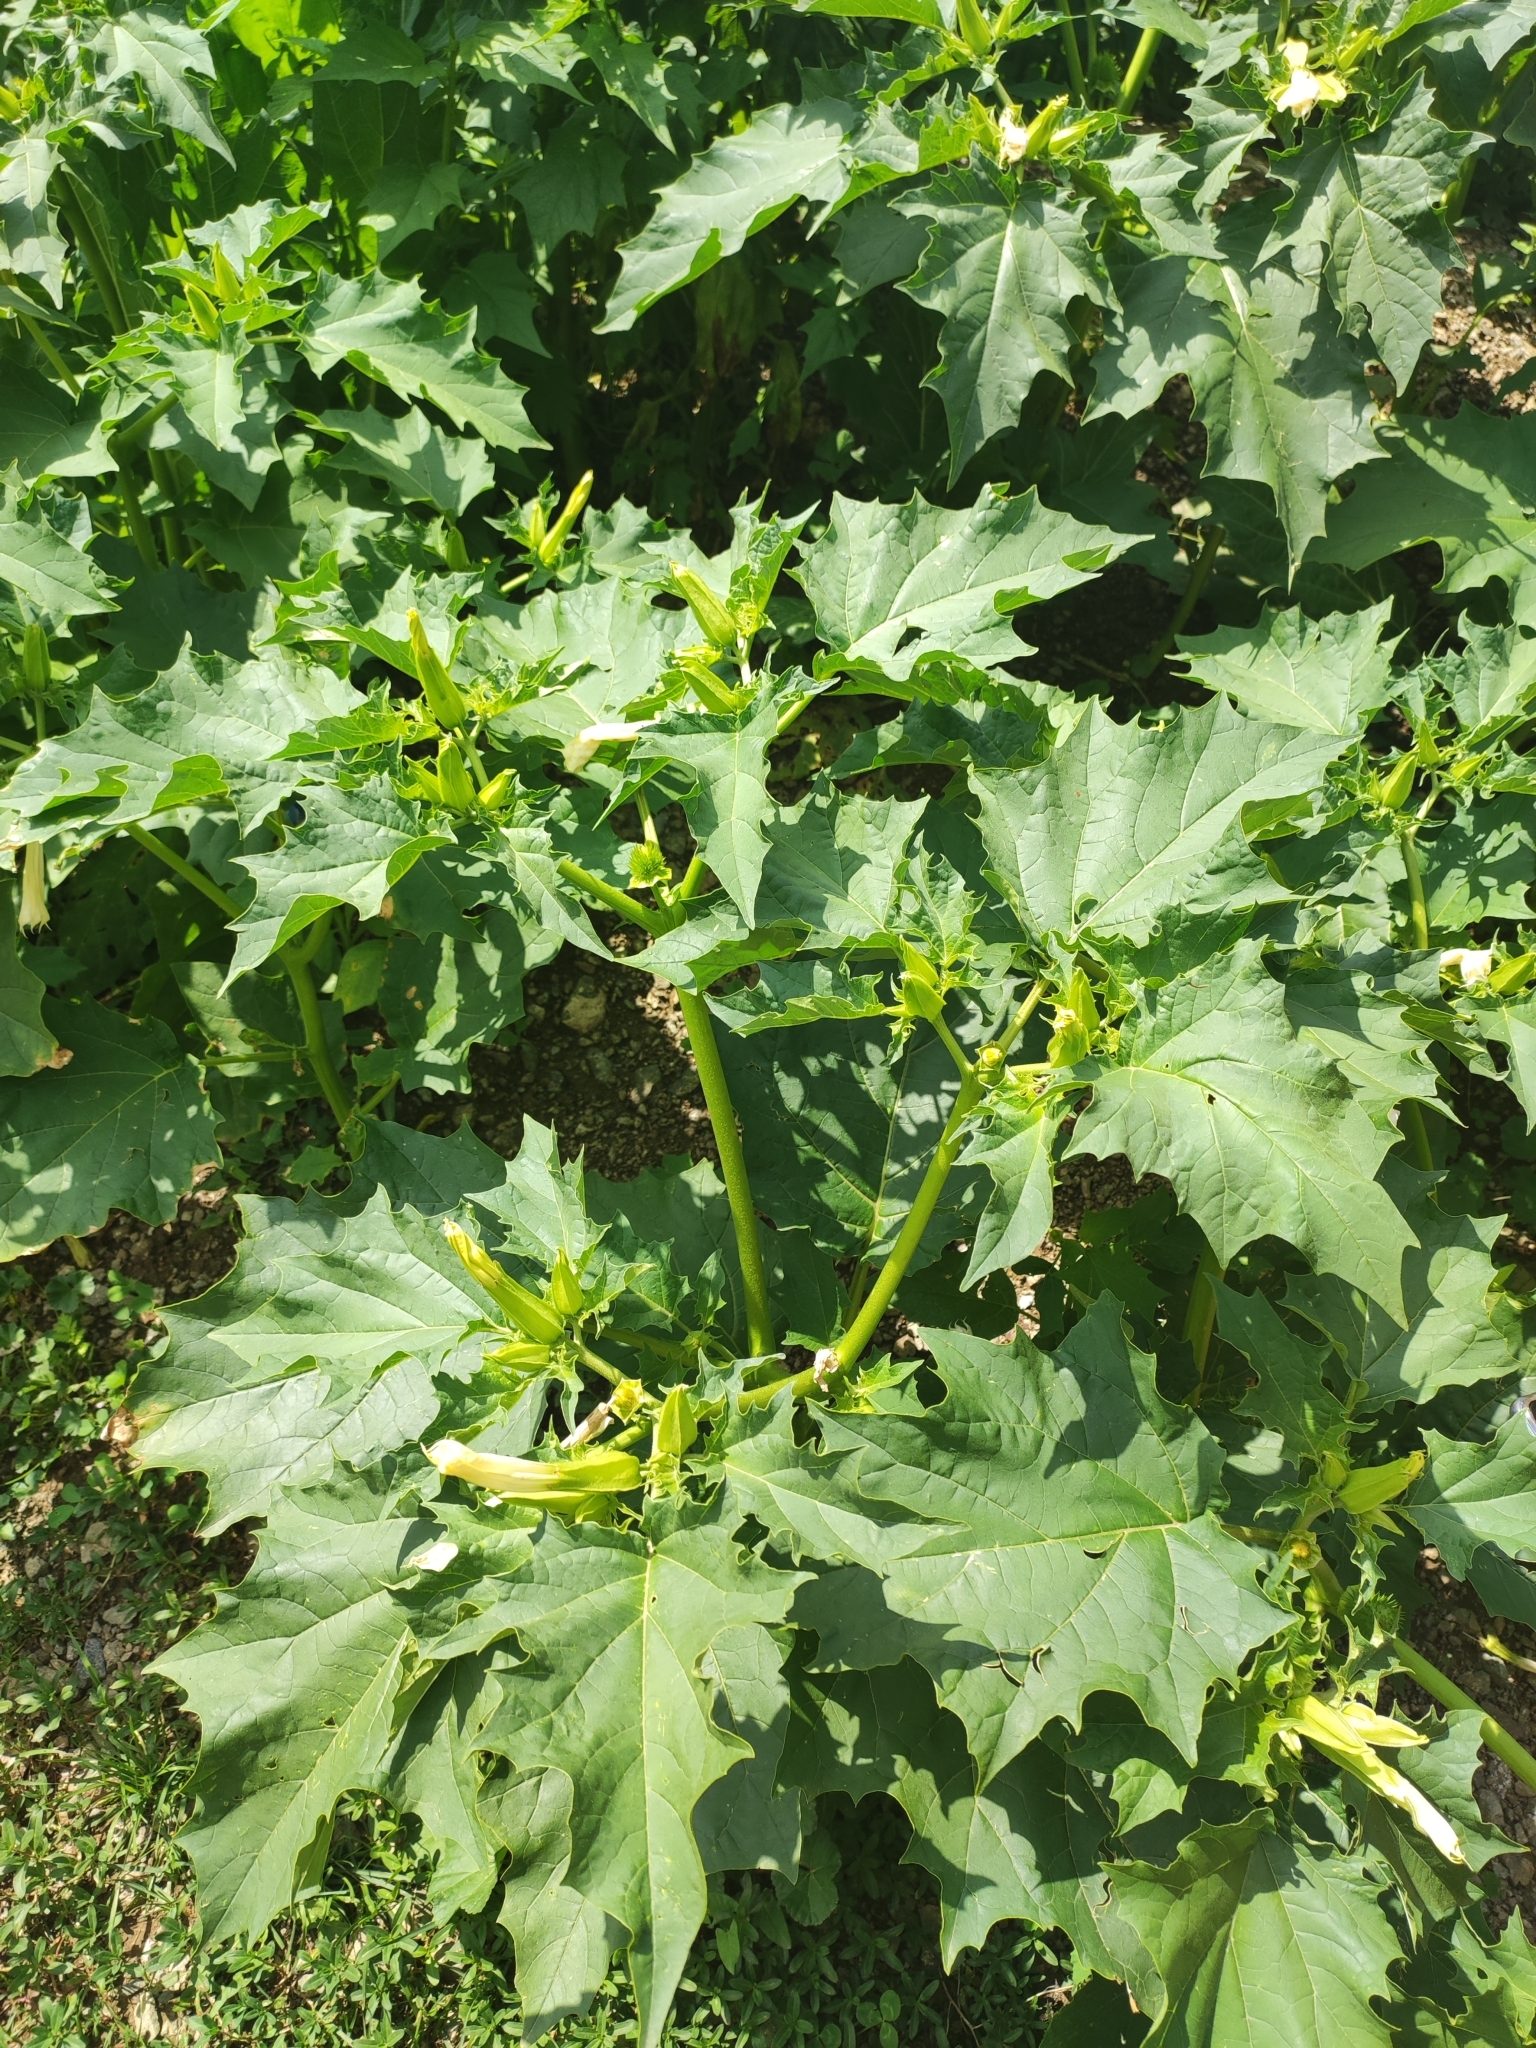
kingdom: Plantae
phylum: Tracheophyta
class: Magnoliopsida
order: Solanales
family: Solanaceae
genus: Datura
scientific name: Datura stramonium
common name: Thorn-apple
